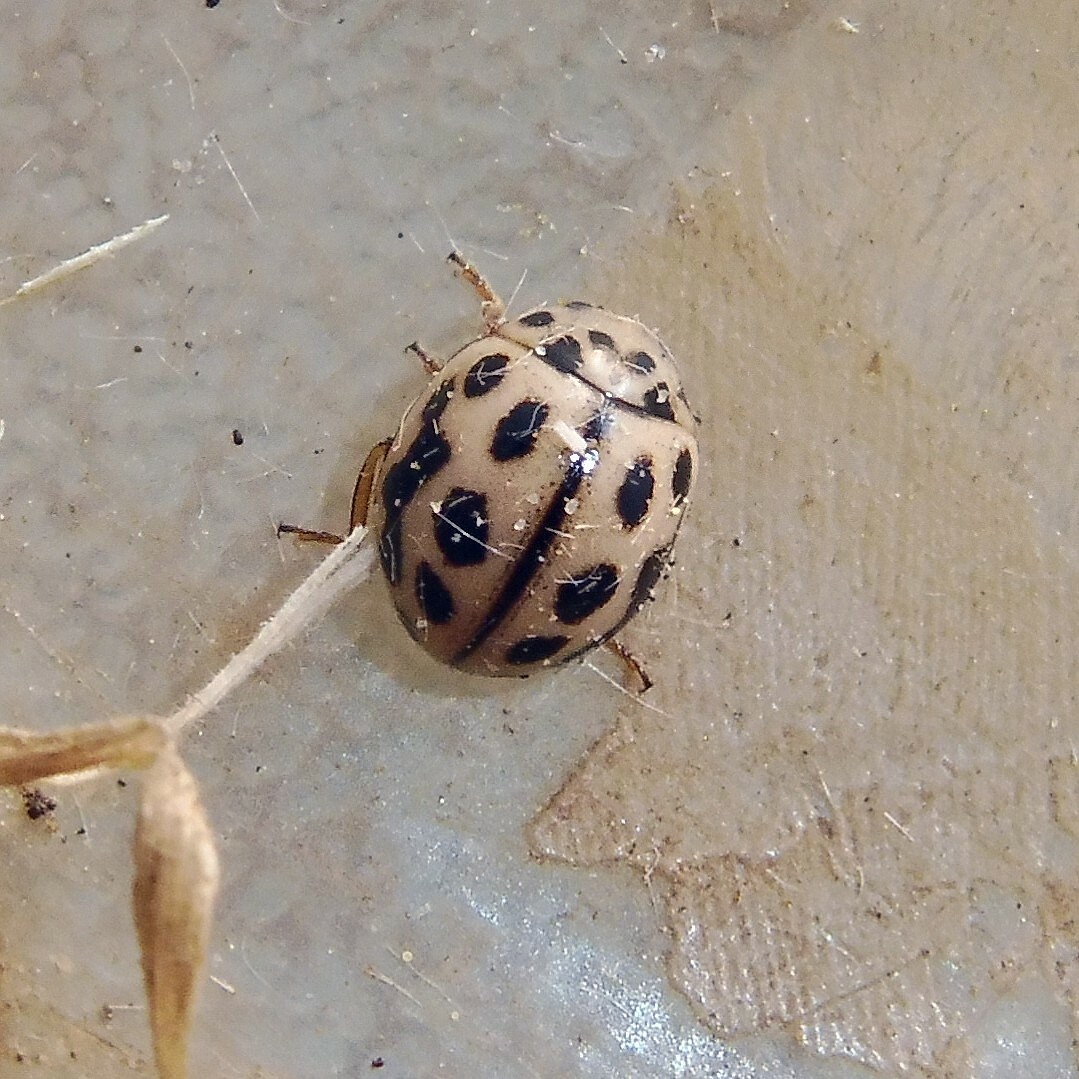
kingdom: Animalia
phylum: Arthropoda
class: Insecta
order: Coleoptera
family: Coccinellidae
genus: Tytthaspis
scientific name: Tytthaspis sedecimpunctata
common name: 16-spot ladybird
